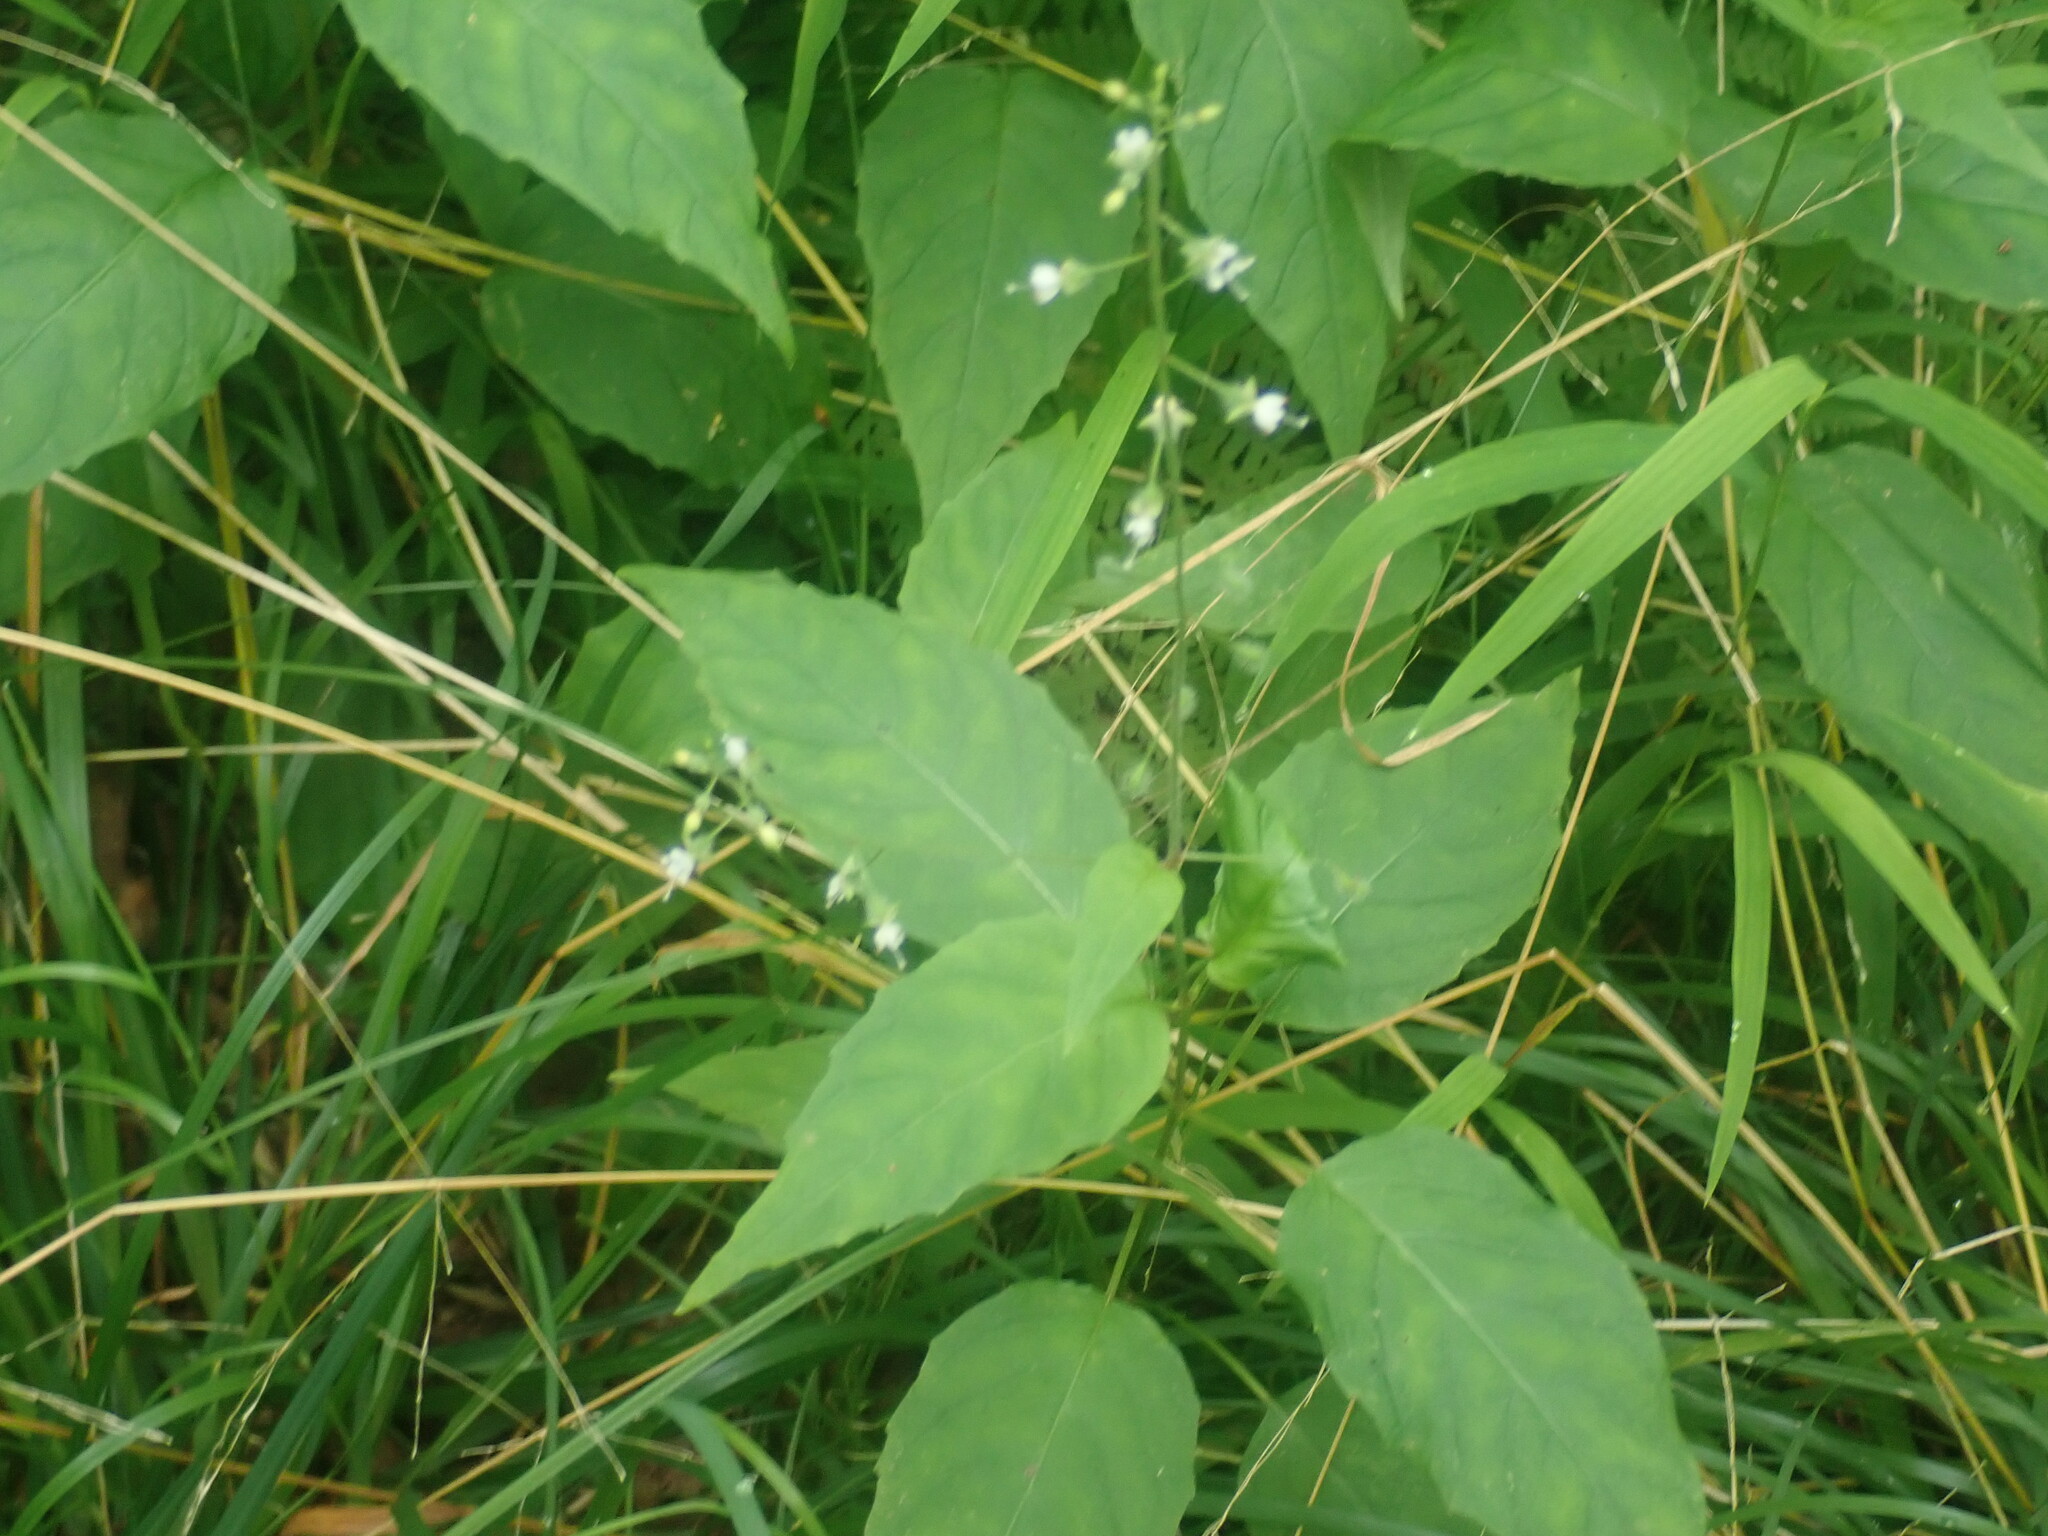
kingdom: Plantae
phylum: Tracheophyta
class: Magnoliopsida
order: Myrtales
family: Onagraceae
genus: Circaea
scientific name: Circaea canadensis
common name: Broad-leaved enchanter's nightshade
